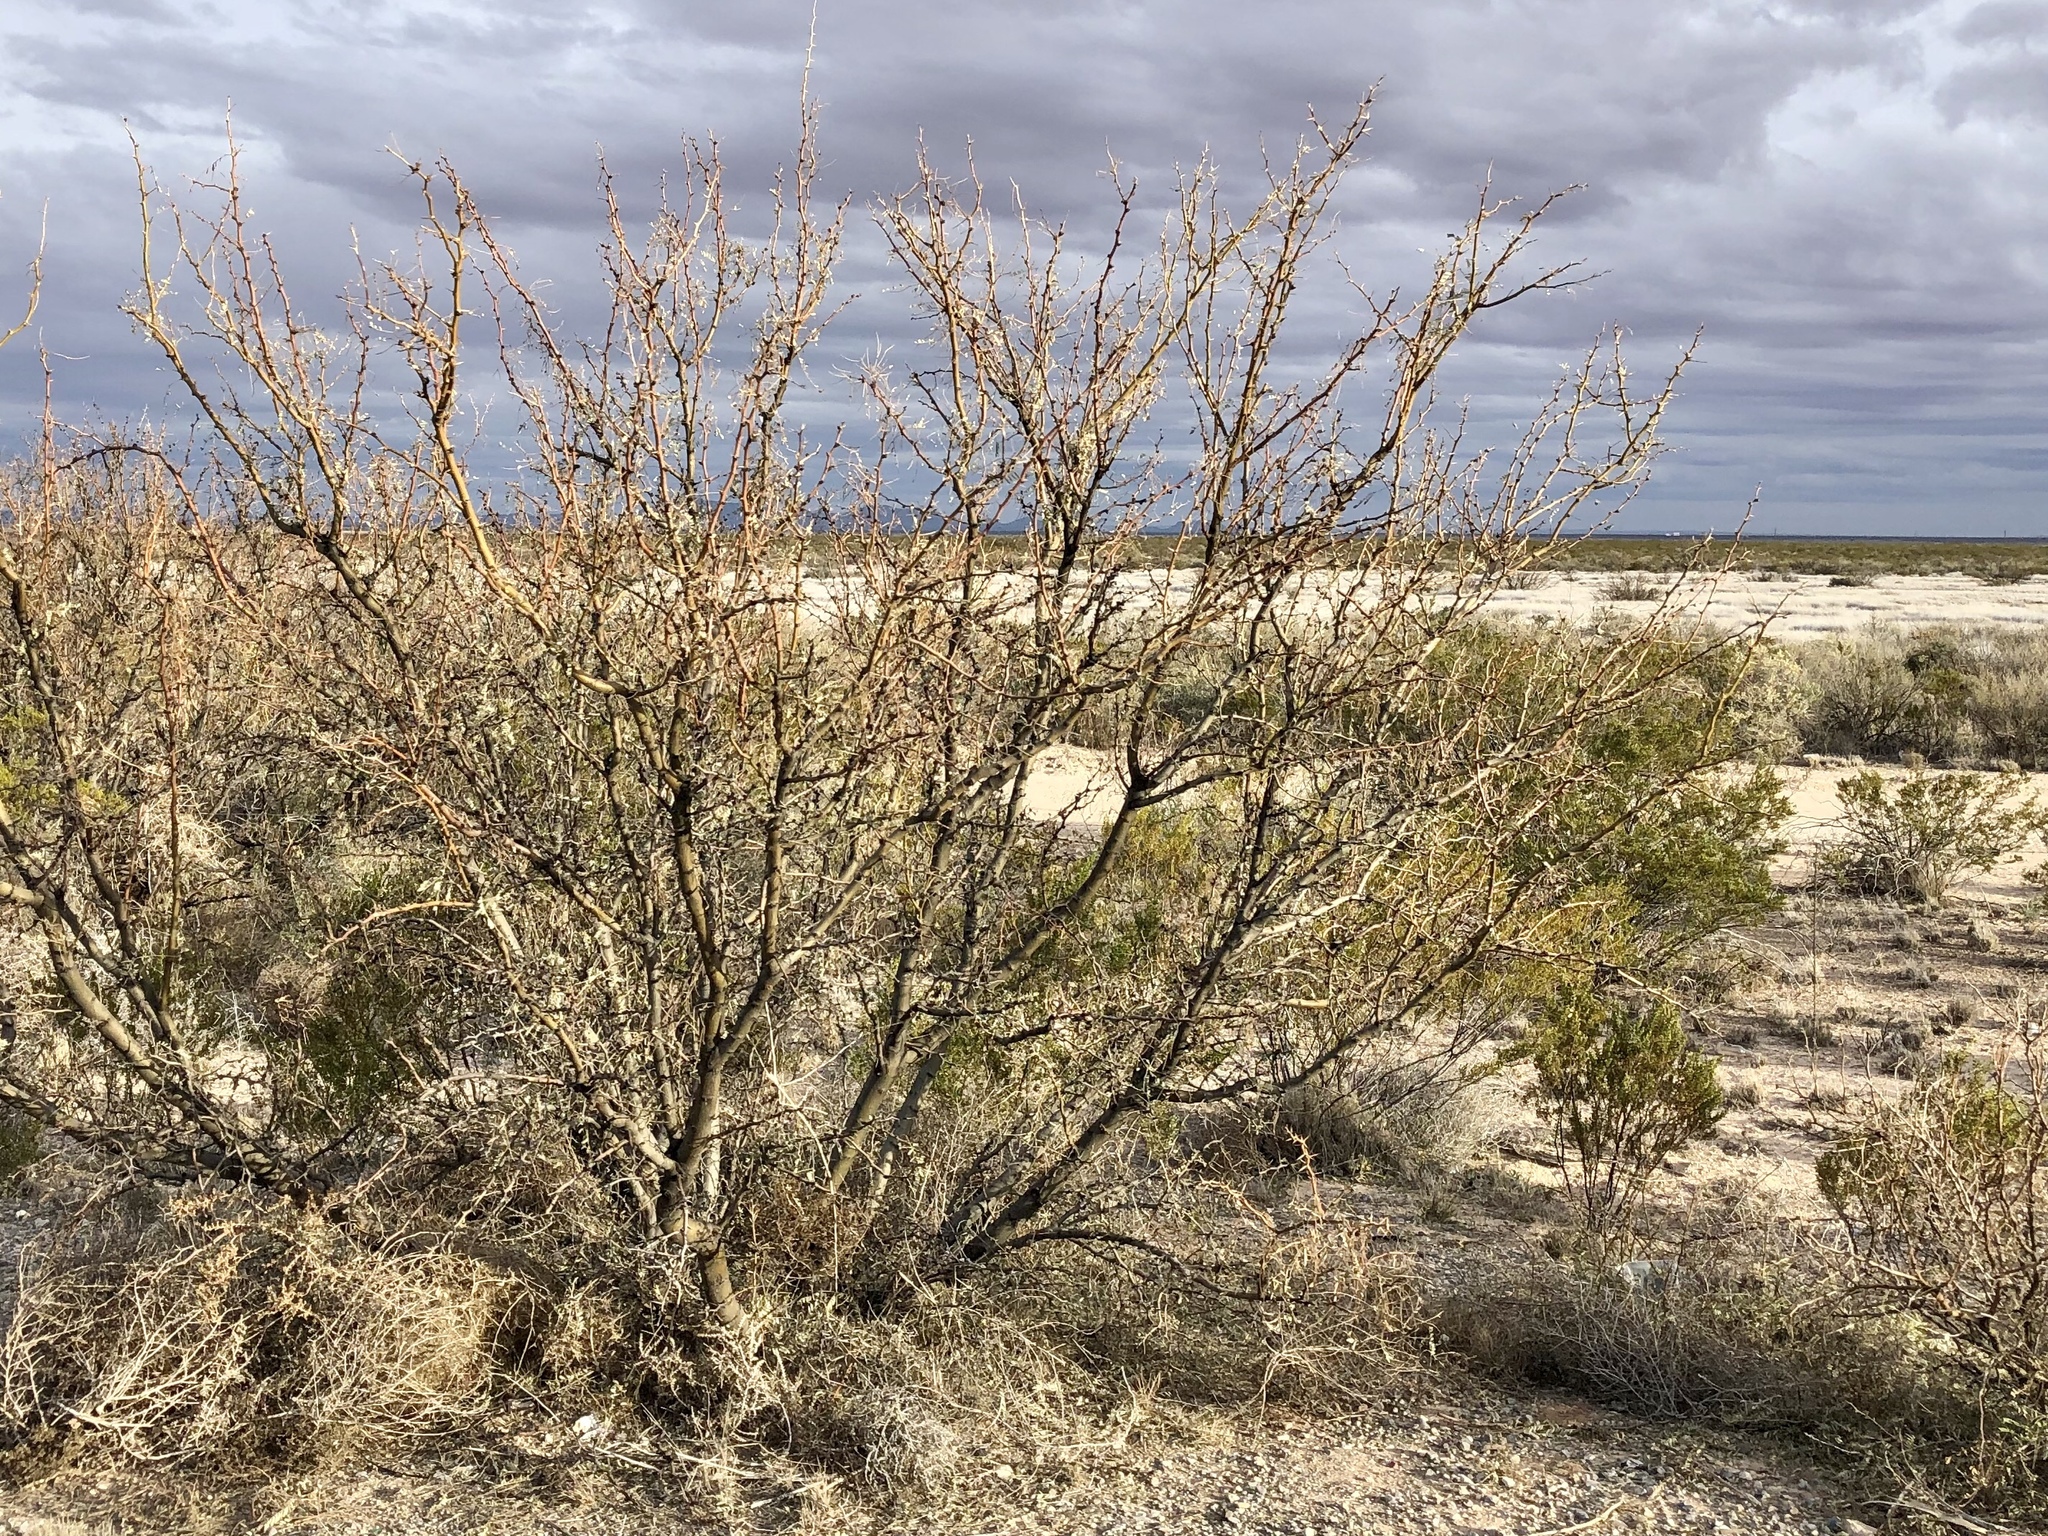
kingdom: Plantae
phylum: Tracheophyta
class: Magnoliopsida
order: Fabales
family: Fabaceae
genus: Prosopis
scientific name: Prosopis glandulosa
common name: Honey mesquite
